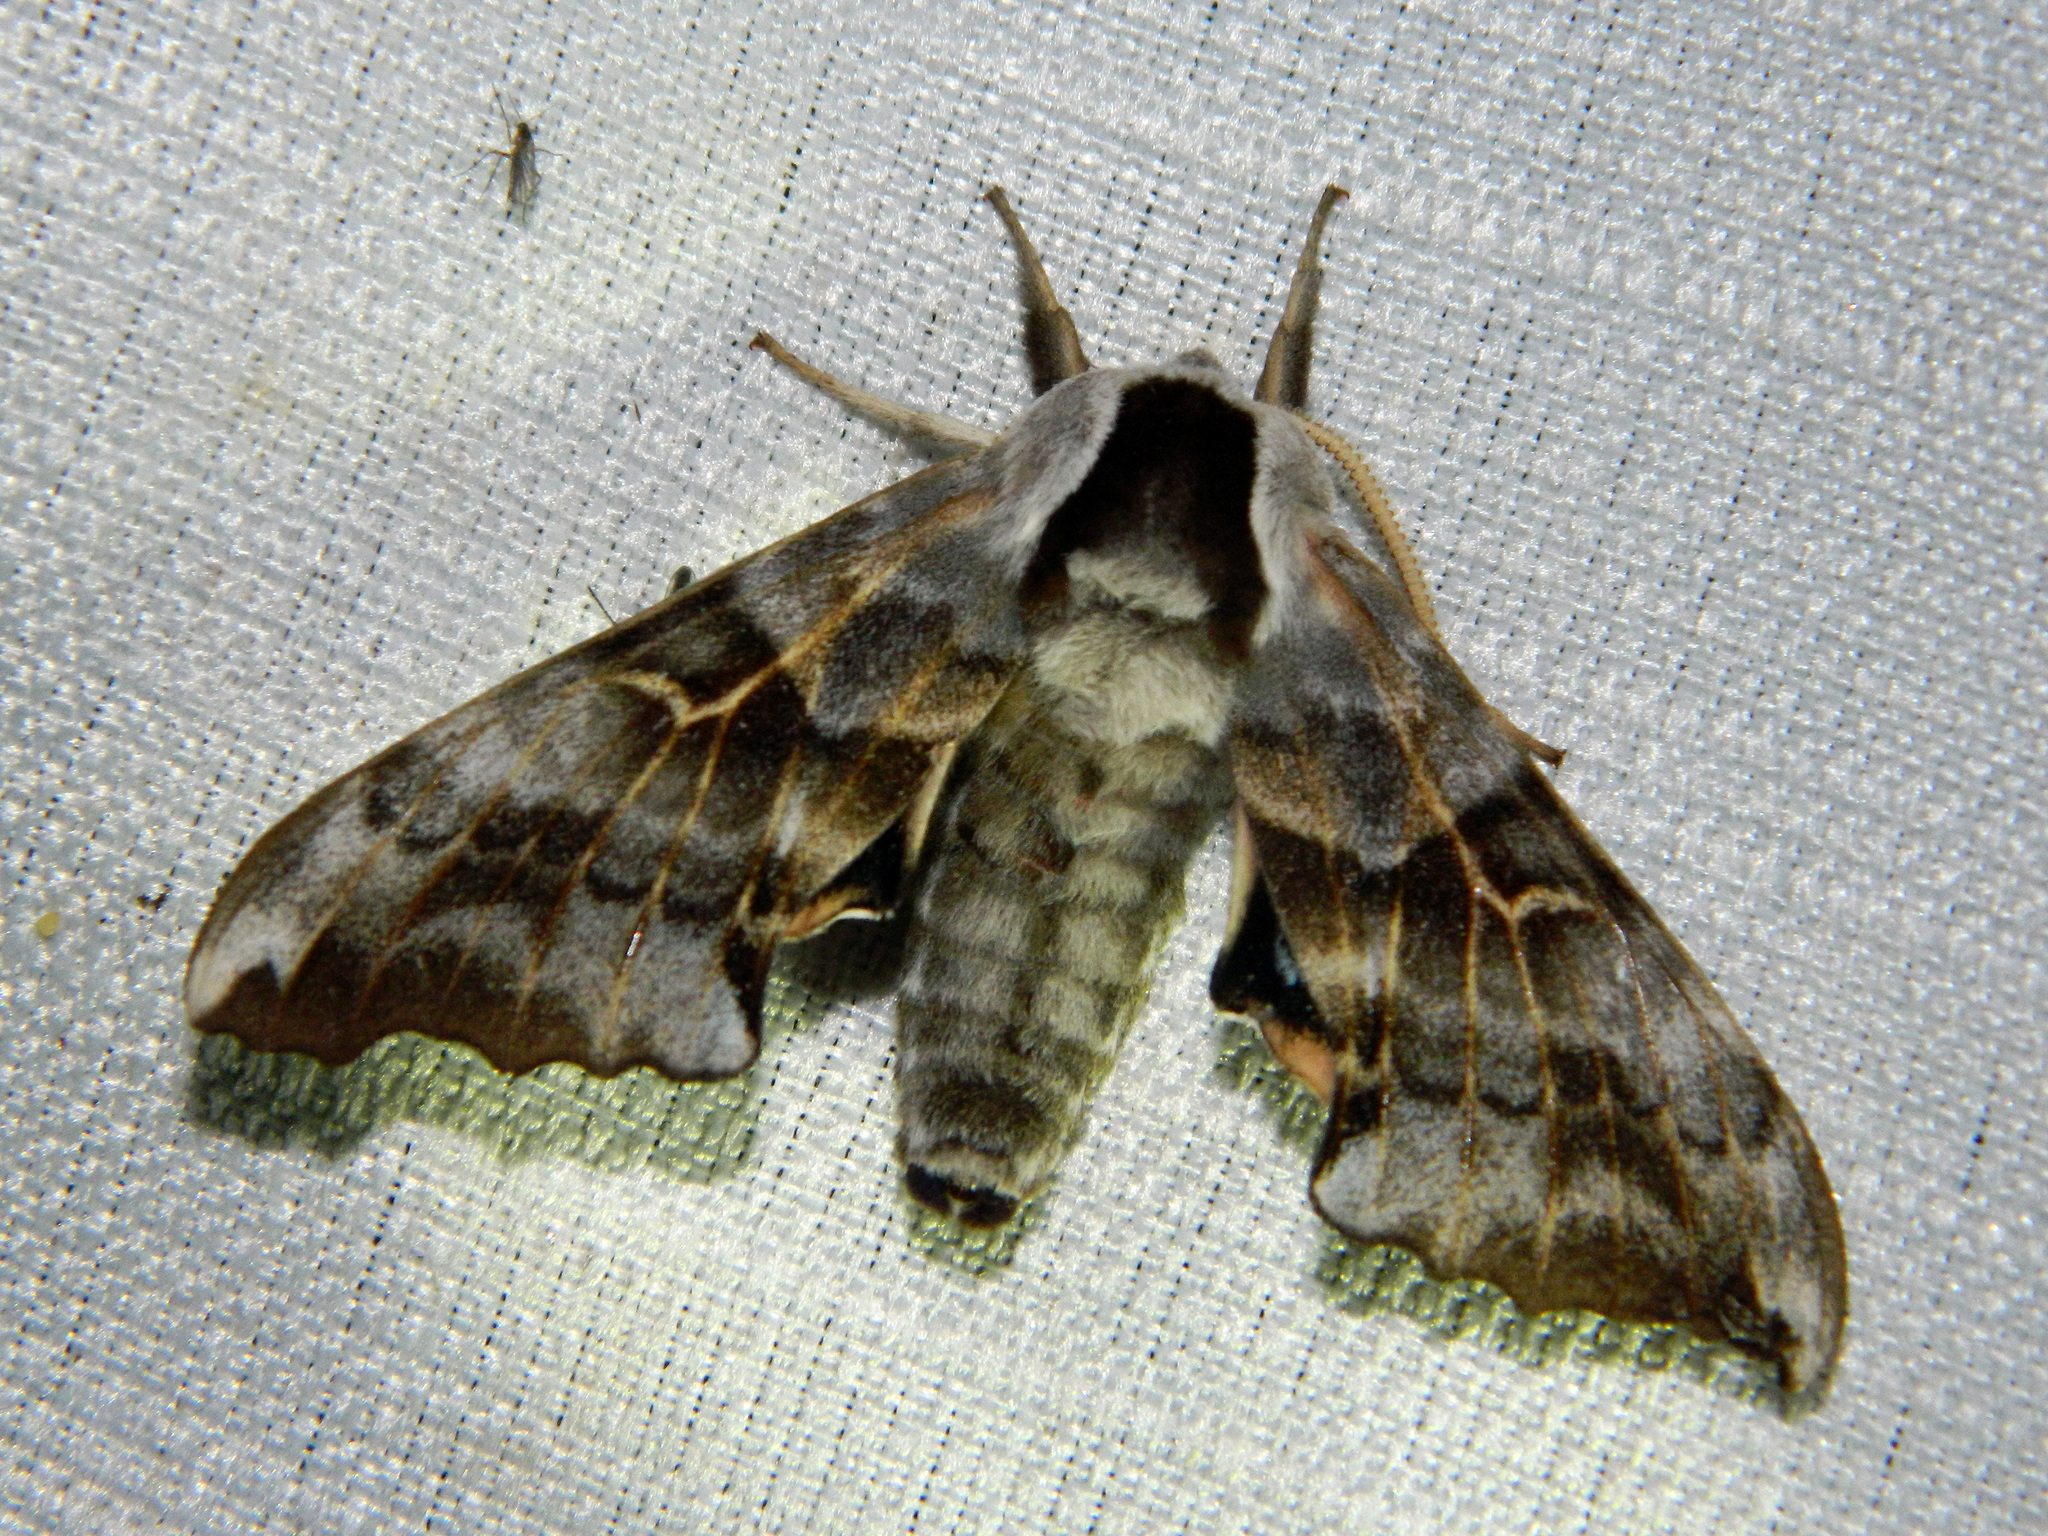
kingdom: Animalia
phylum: Arthropoda
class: Insecta
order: Lepidoptera
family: Sphingidae
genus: Smerinthus
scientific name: Smerinthus cerisyi
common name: Cerisy's sphinx moth
